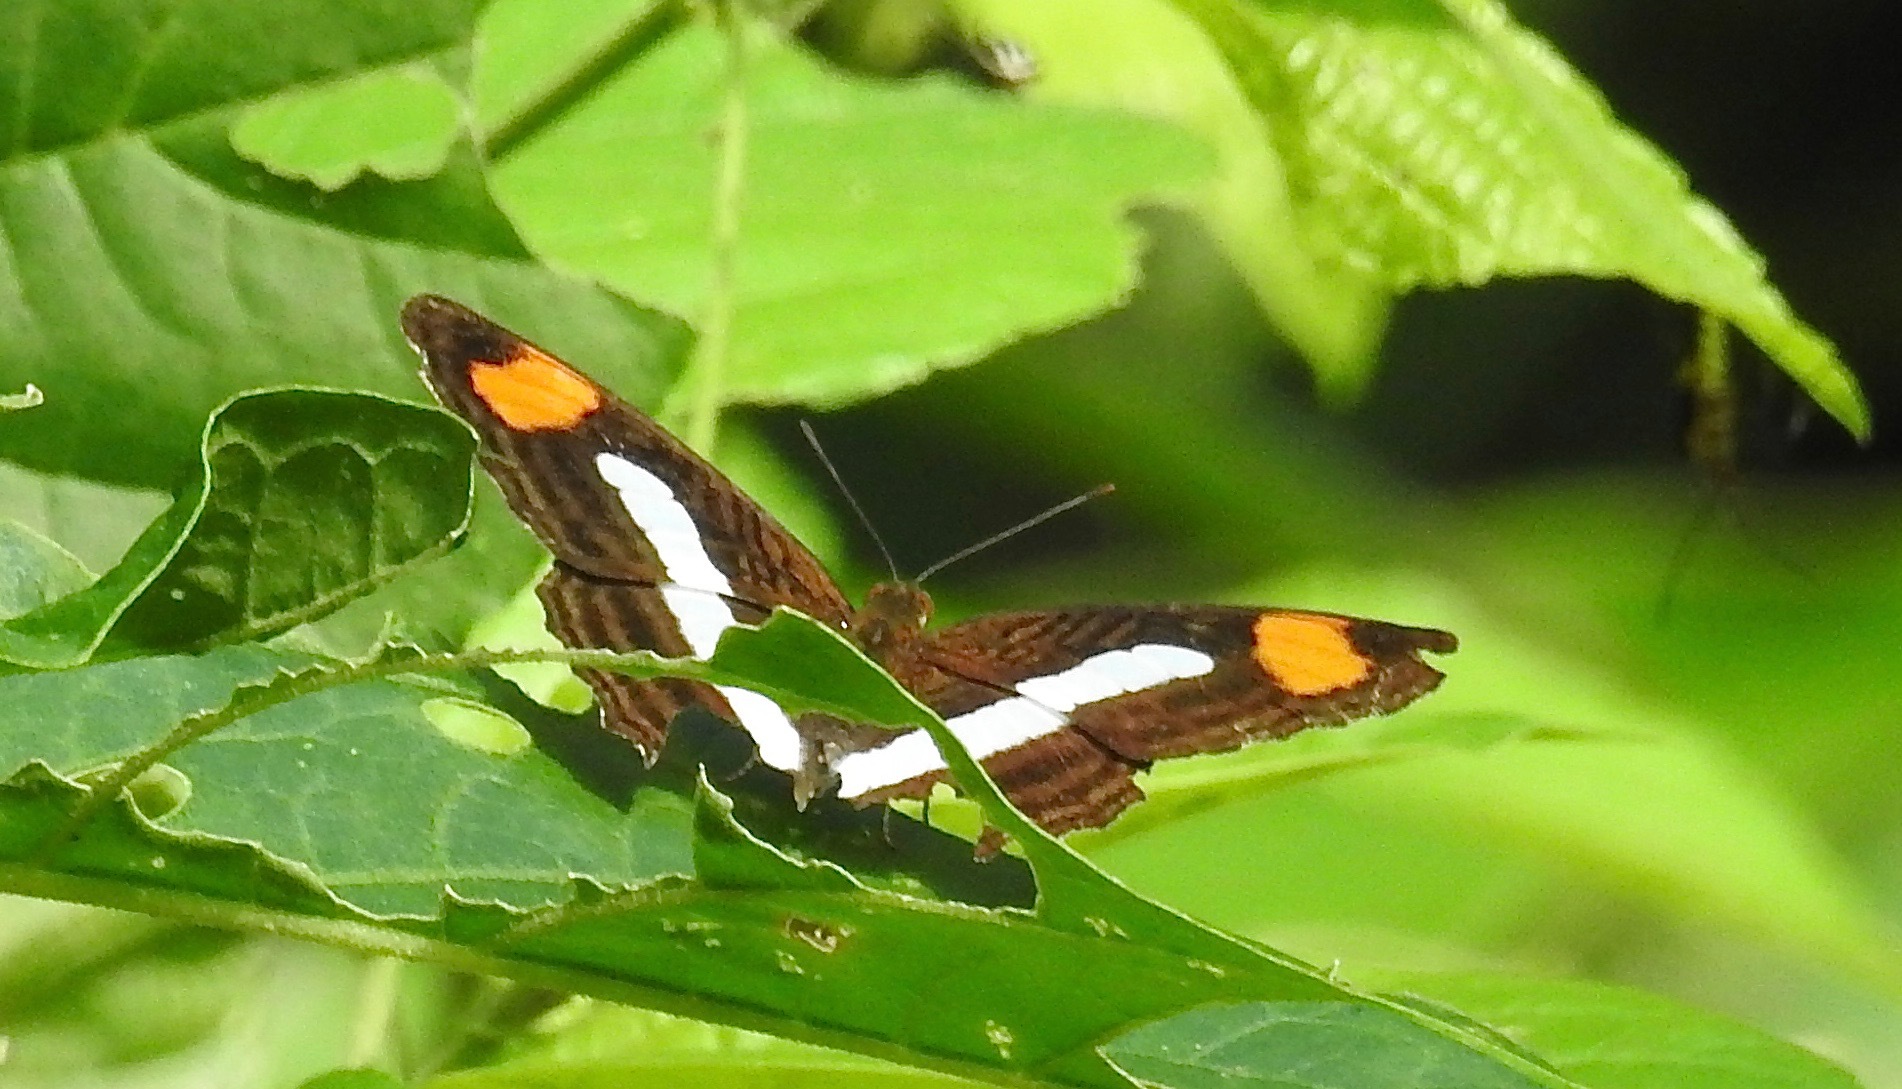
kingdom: Animalia
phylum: Arthropoda
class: Insecta
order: Lepidoptera
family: Nymphalidae
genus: Limenitis
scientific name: Limenitis iphiclus
